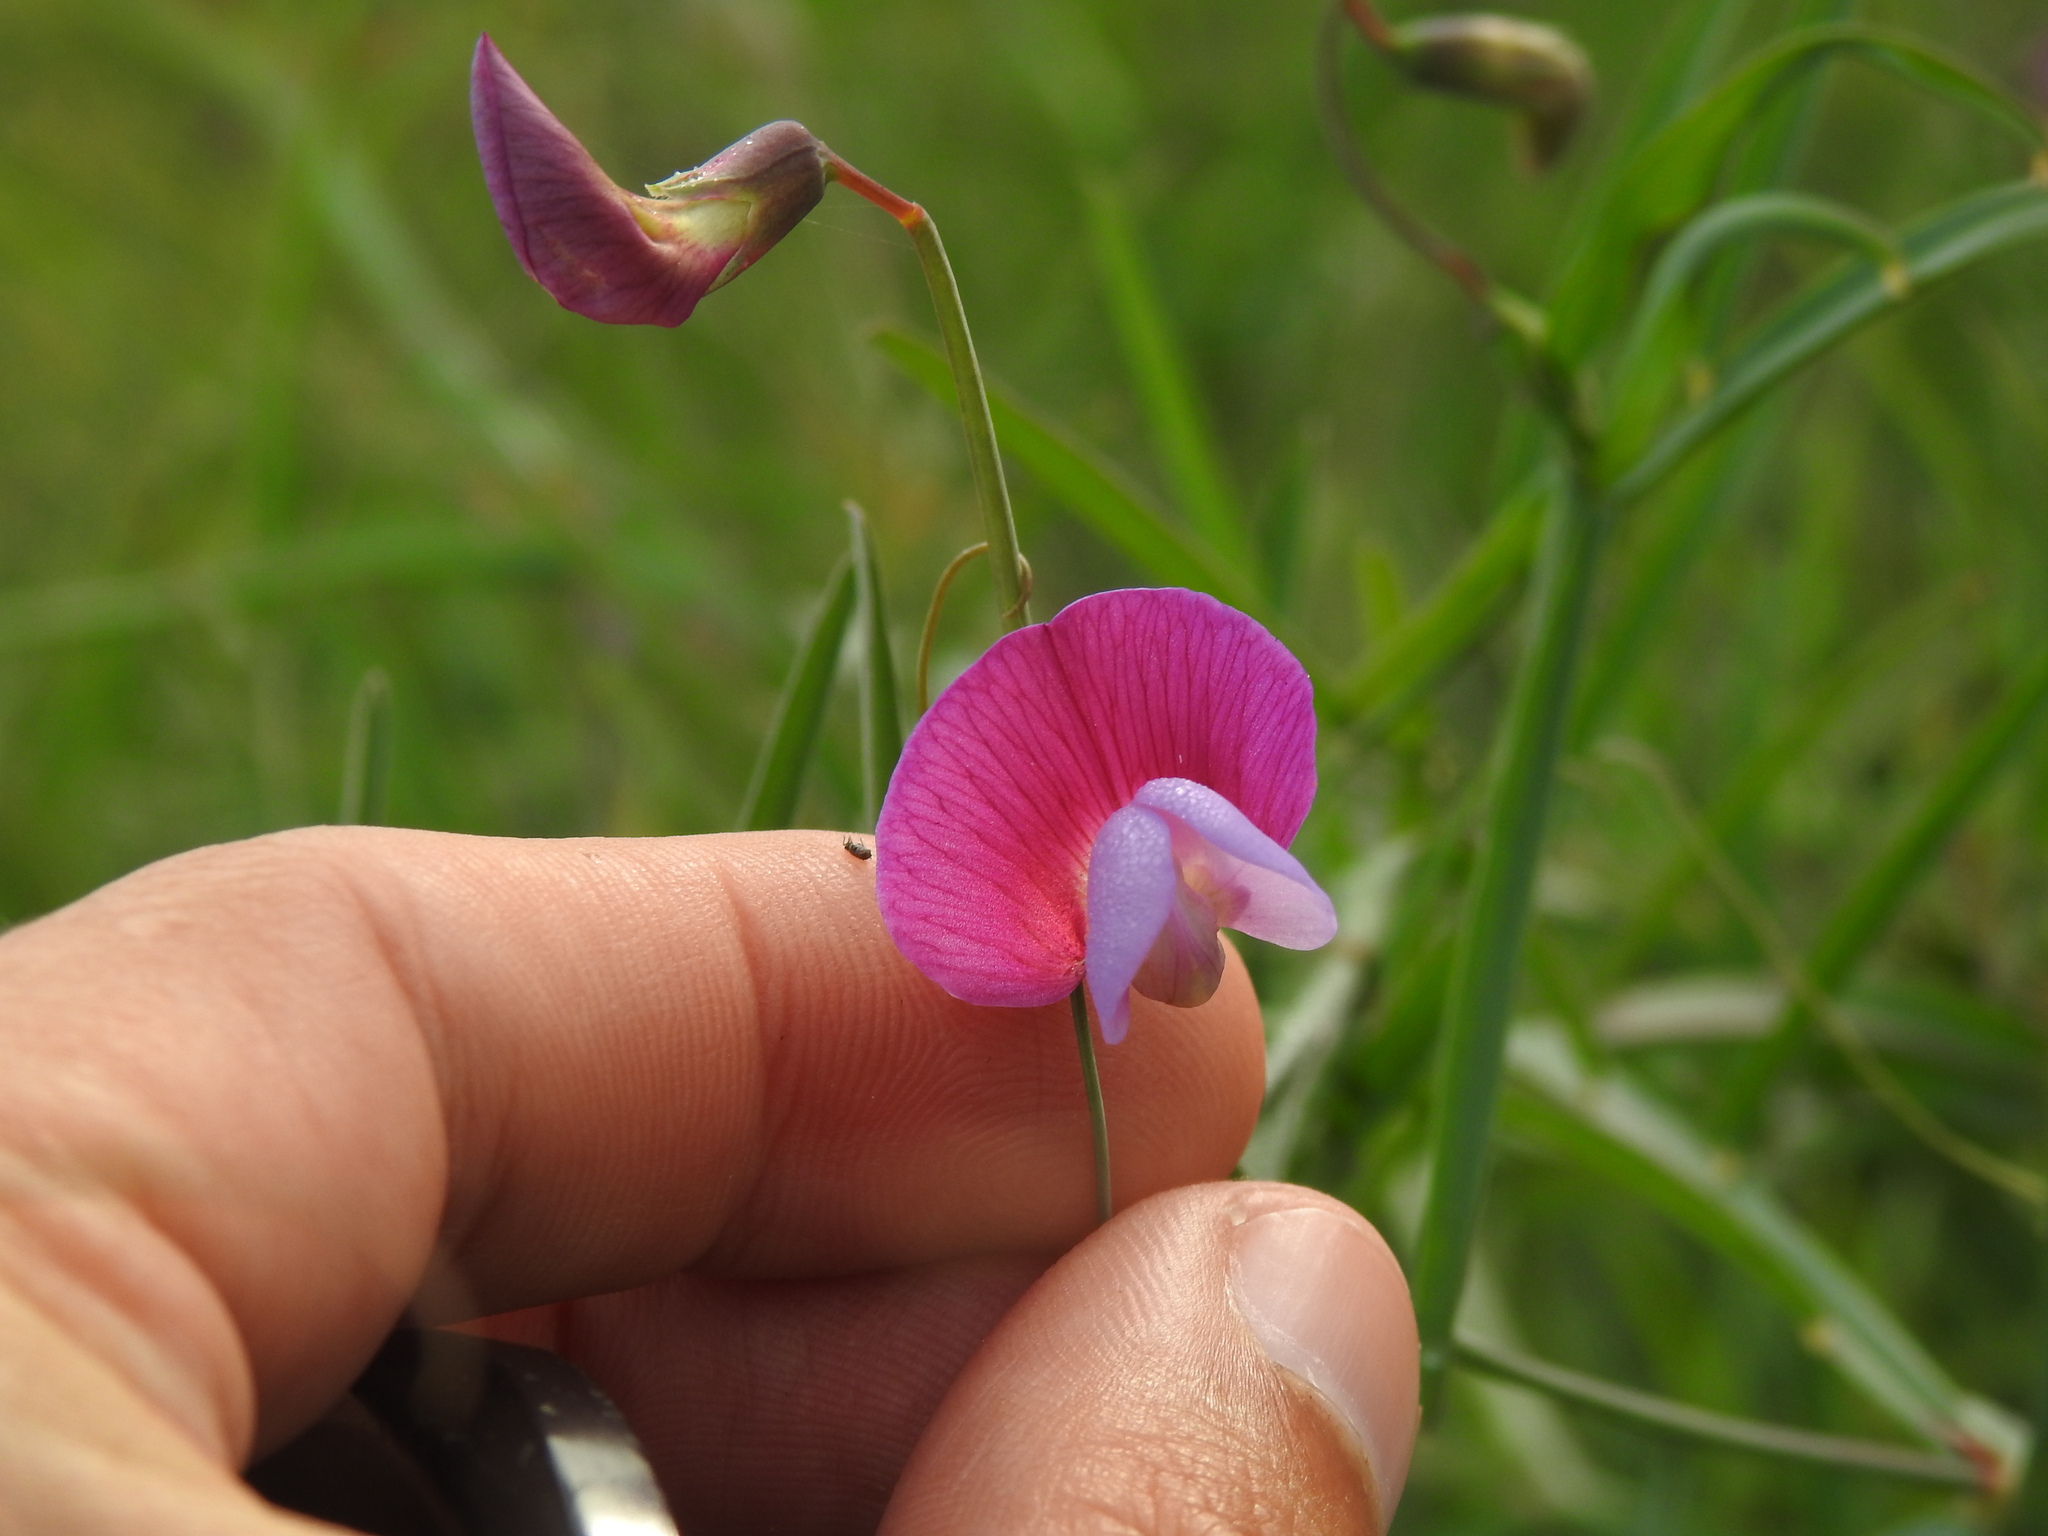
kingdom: Plantae
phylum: Tracheophyta
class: Magnoliopsida
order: Fabales
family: Fabaceae
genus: Lathyrus
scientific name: Lathyrus clymenum
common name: Spanish vetchling
